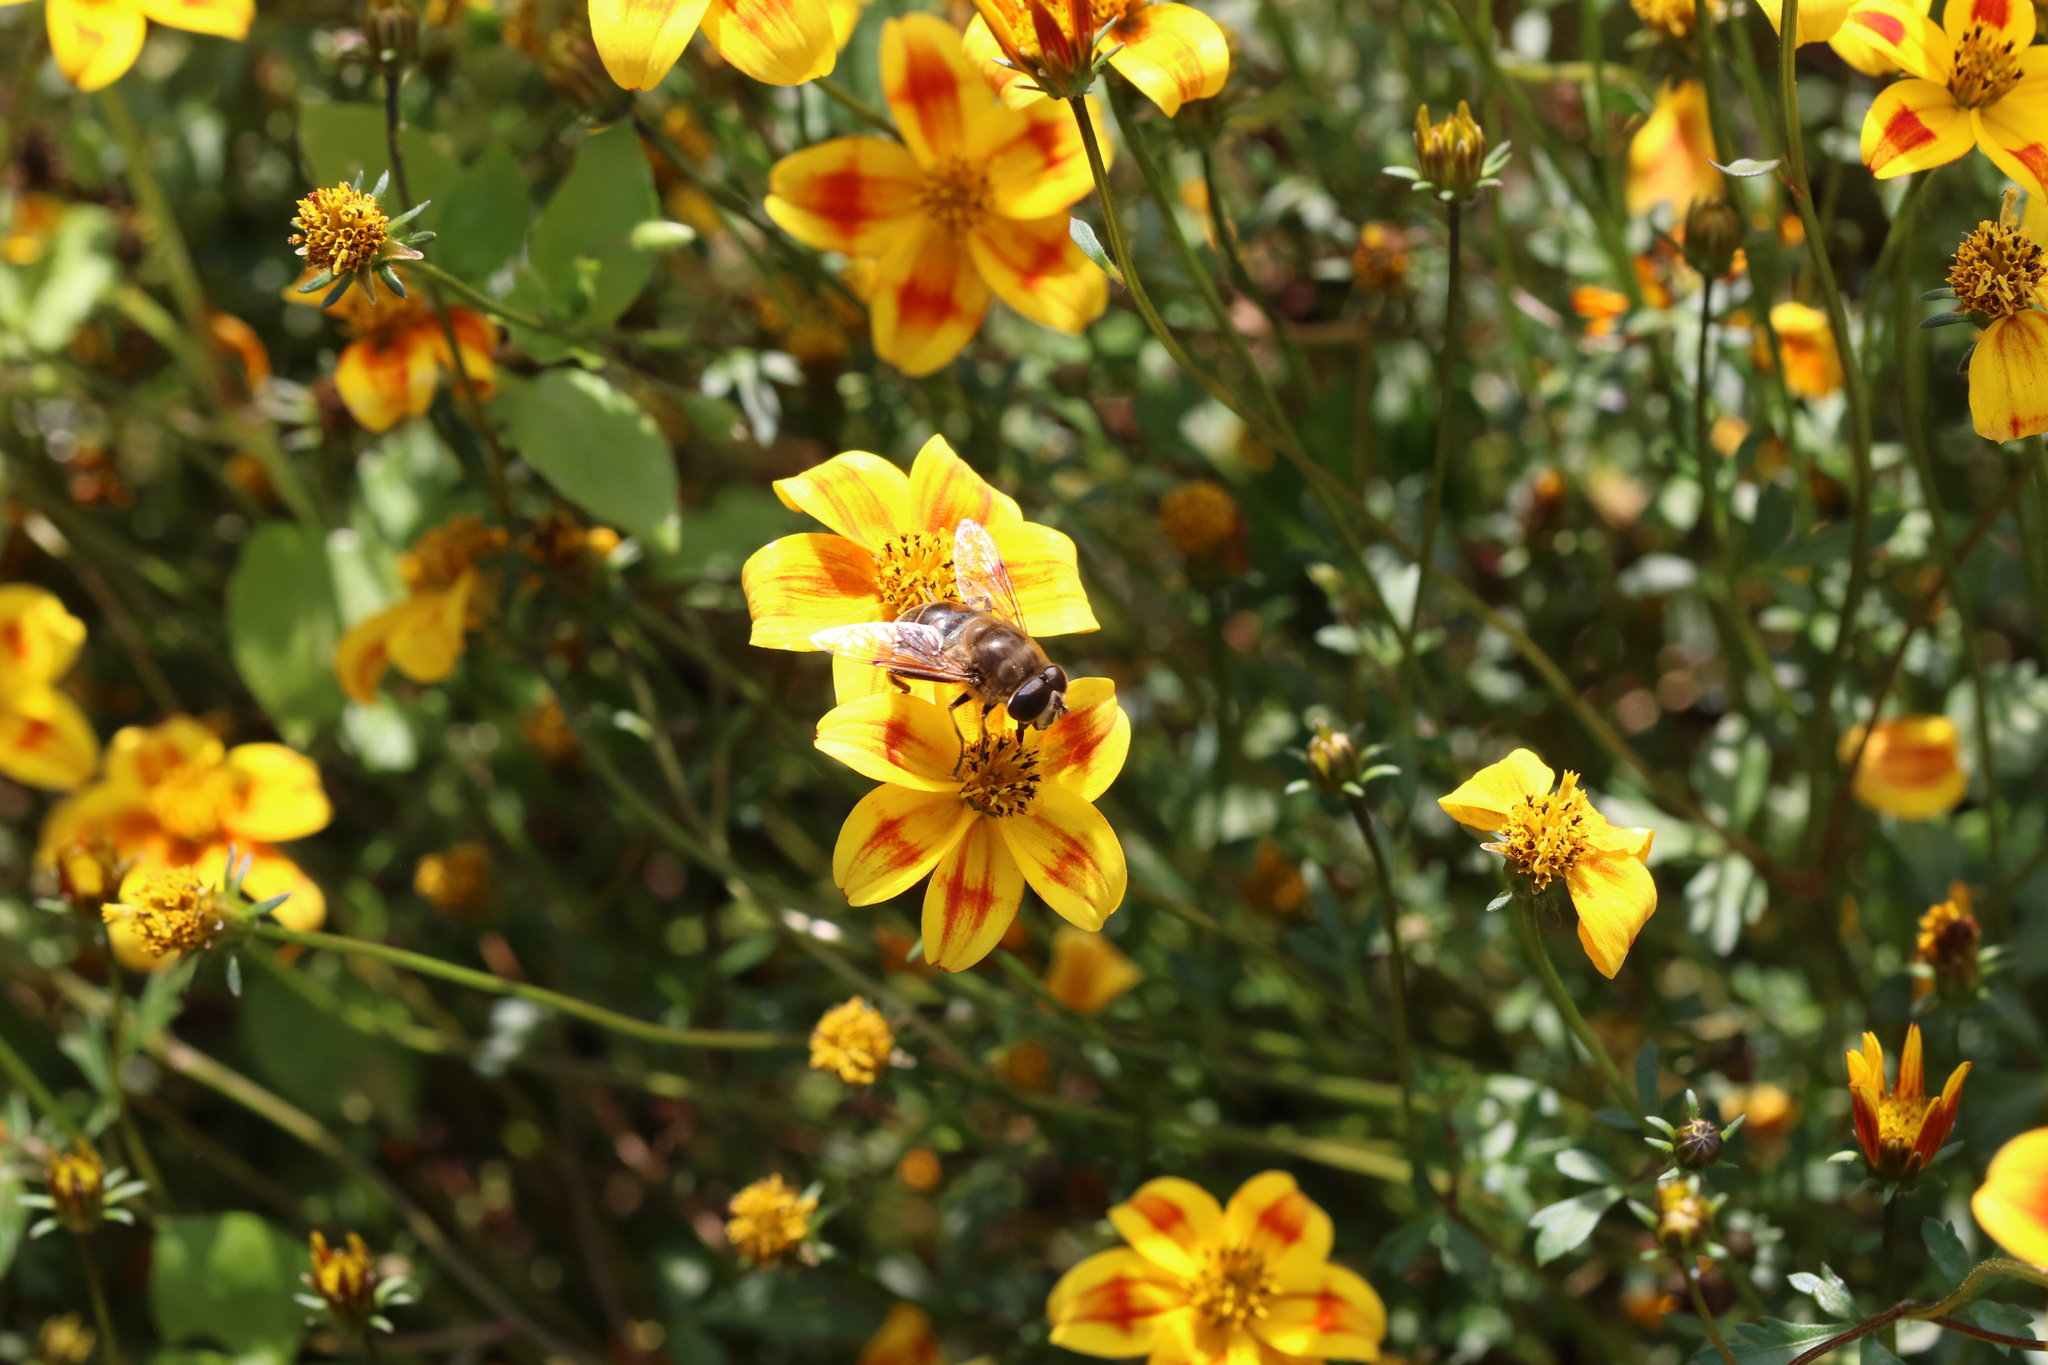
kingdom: Animalia
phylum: Arthropoda
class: Insecta
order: Diptera
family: Syrphidae
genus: Eristalis
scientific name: Eristalis tenax
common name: Drone fly
